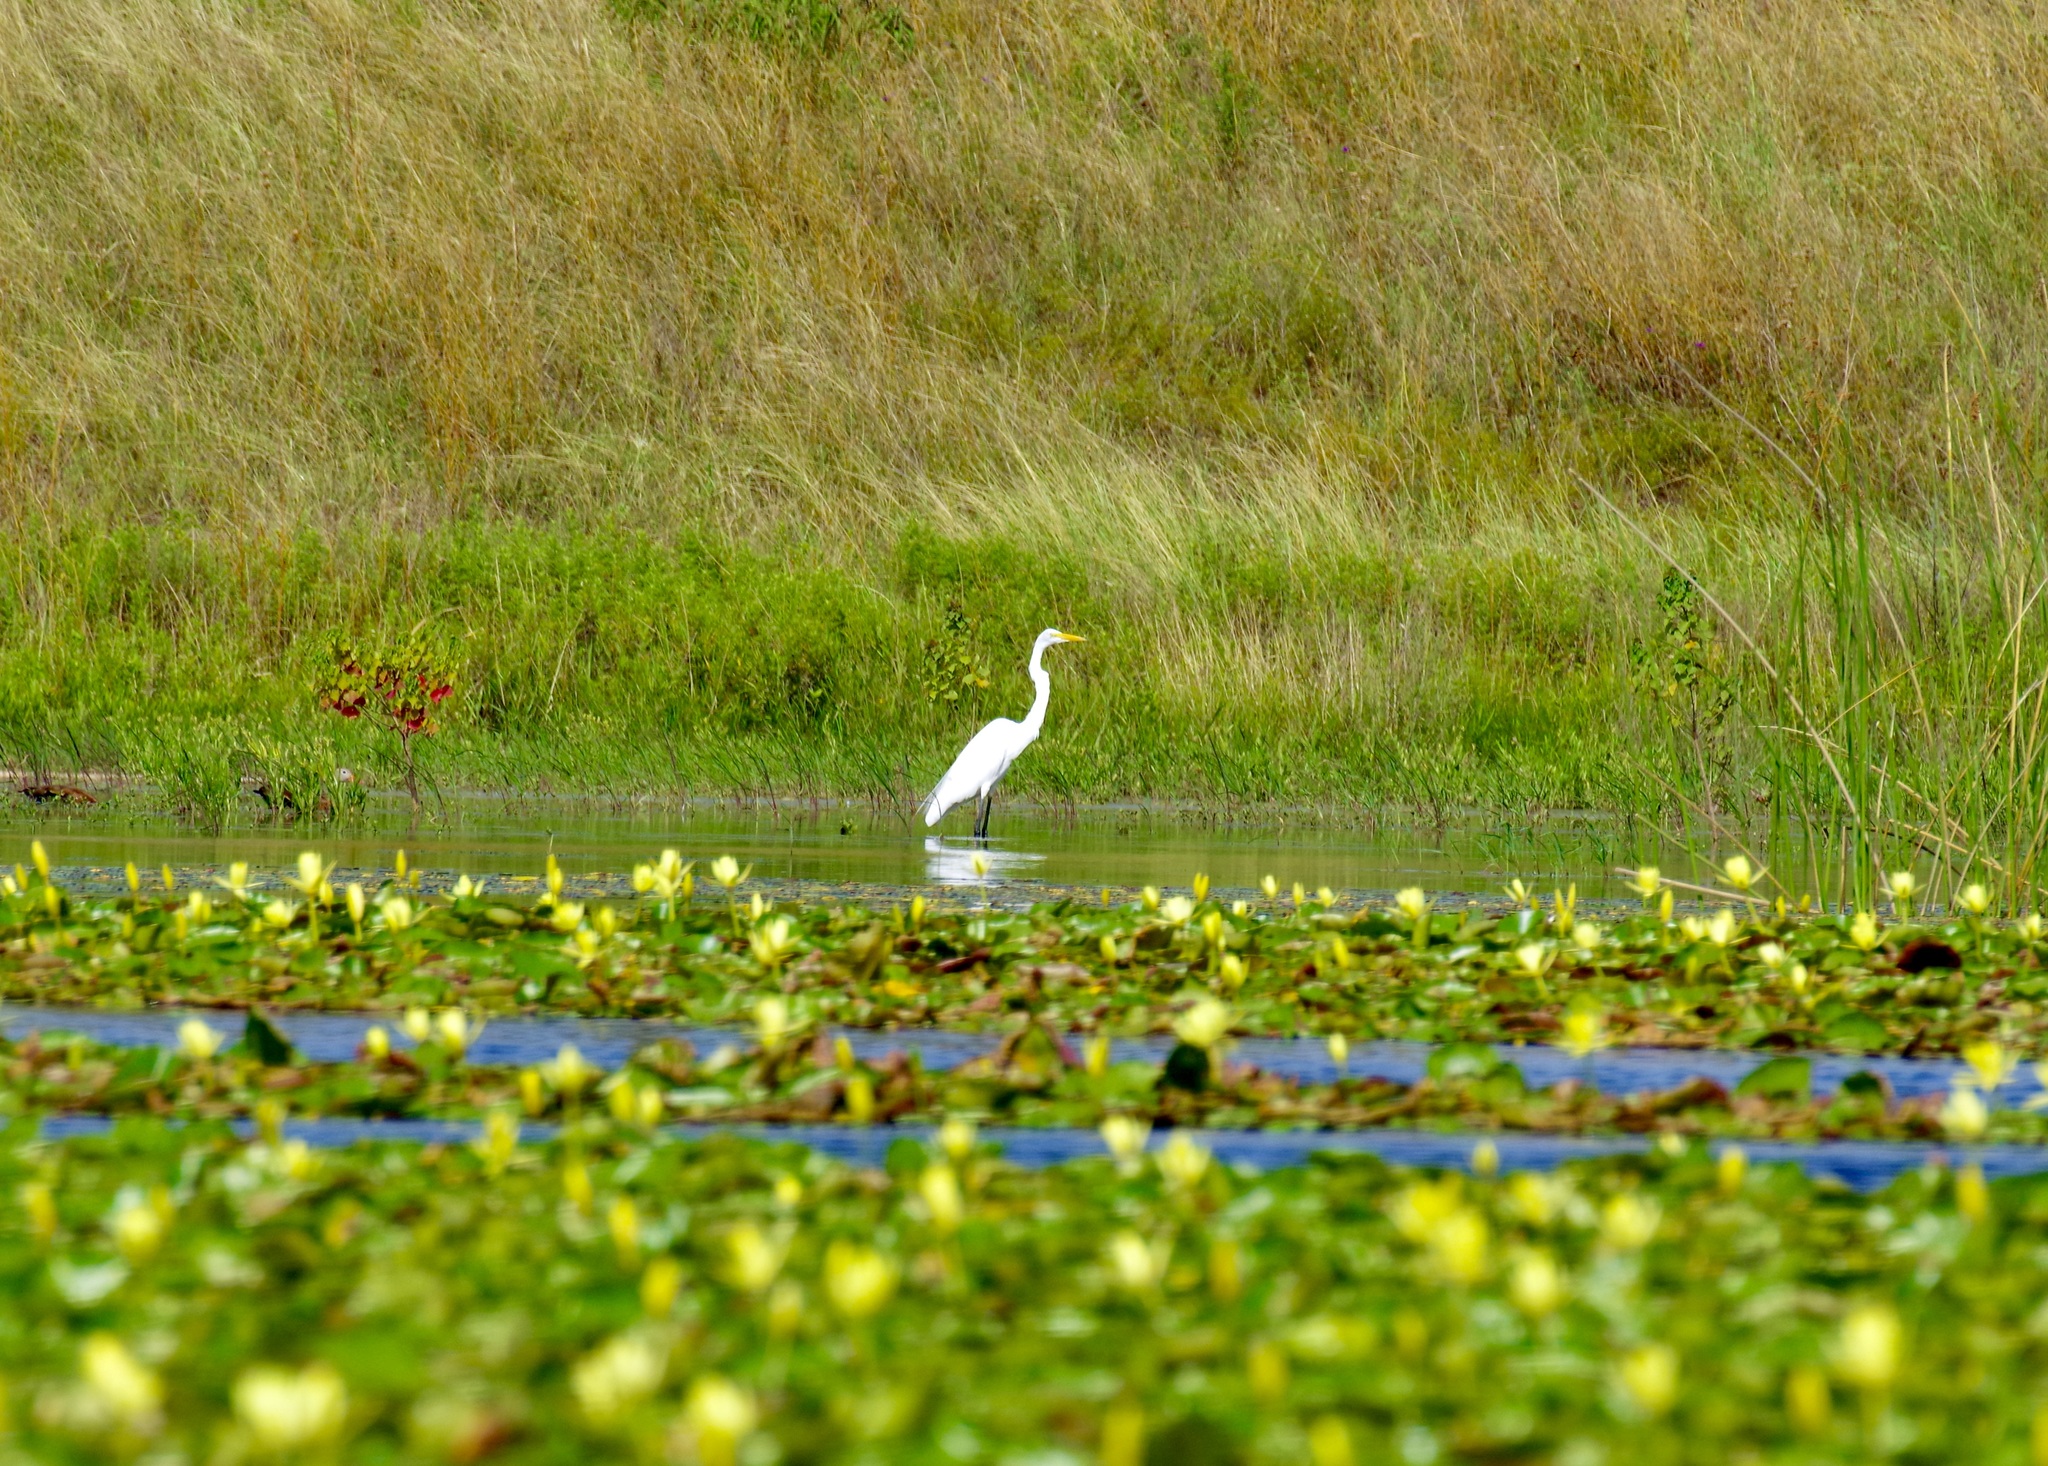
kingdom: Animalia
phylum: Chordata
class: Aves
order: Pelecaniformes
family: Ardeidae
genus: Ardea
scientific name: Ardea alba
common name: Great egret
